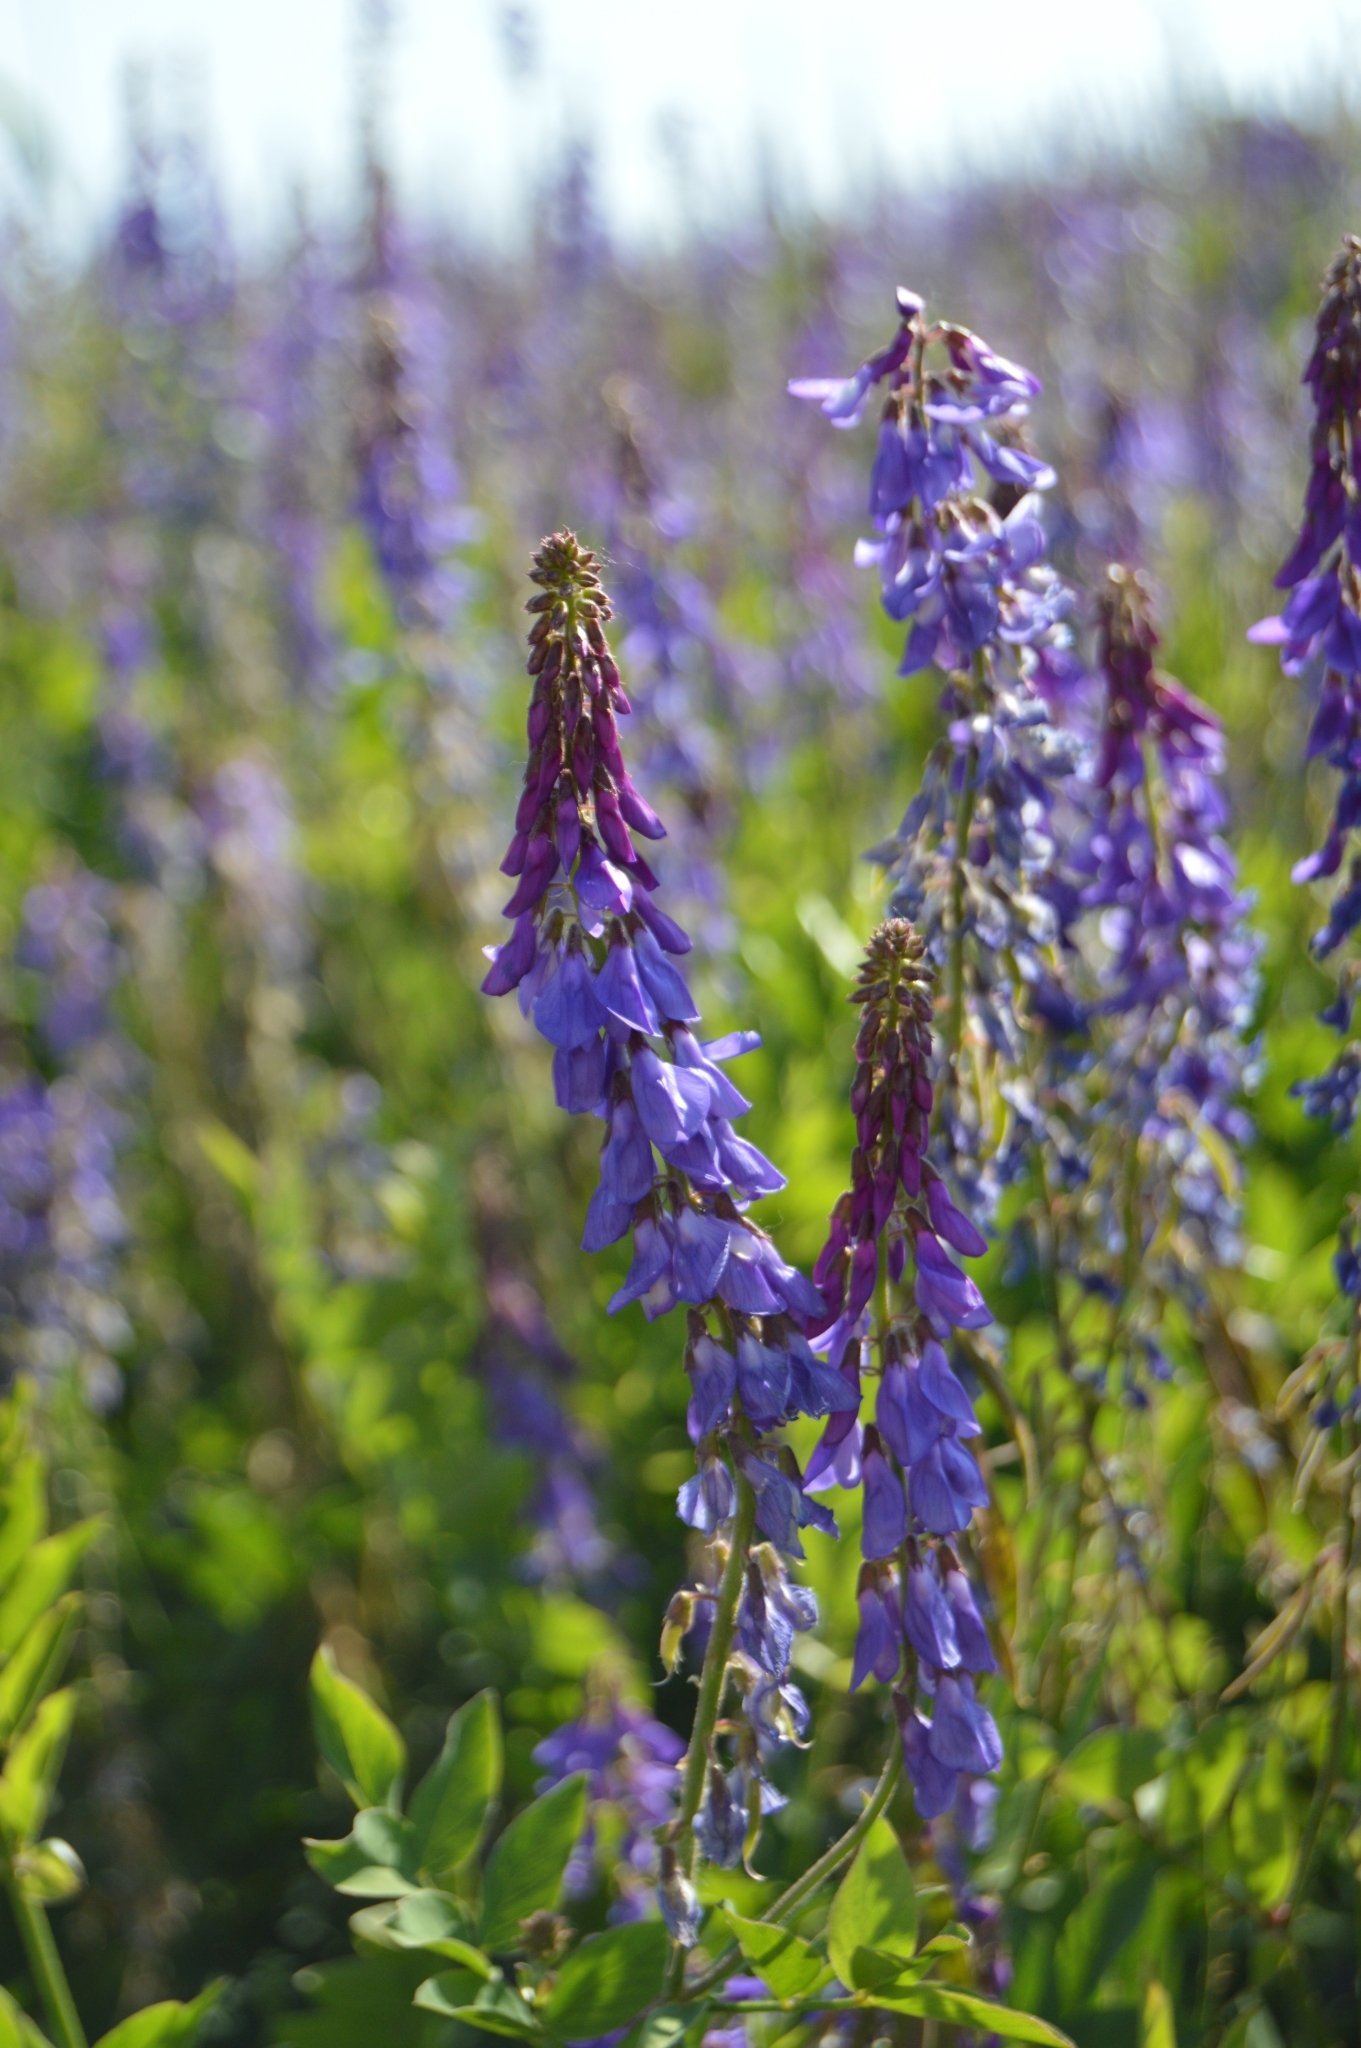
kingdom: Plantae
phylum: Tracheophyta
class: Magnoliopsida
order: Fabales
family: Fabaceae
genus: Galega
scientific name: Galega orientalis
